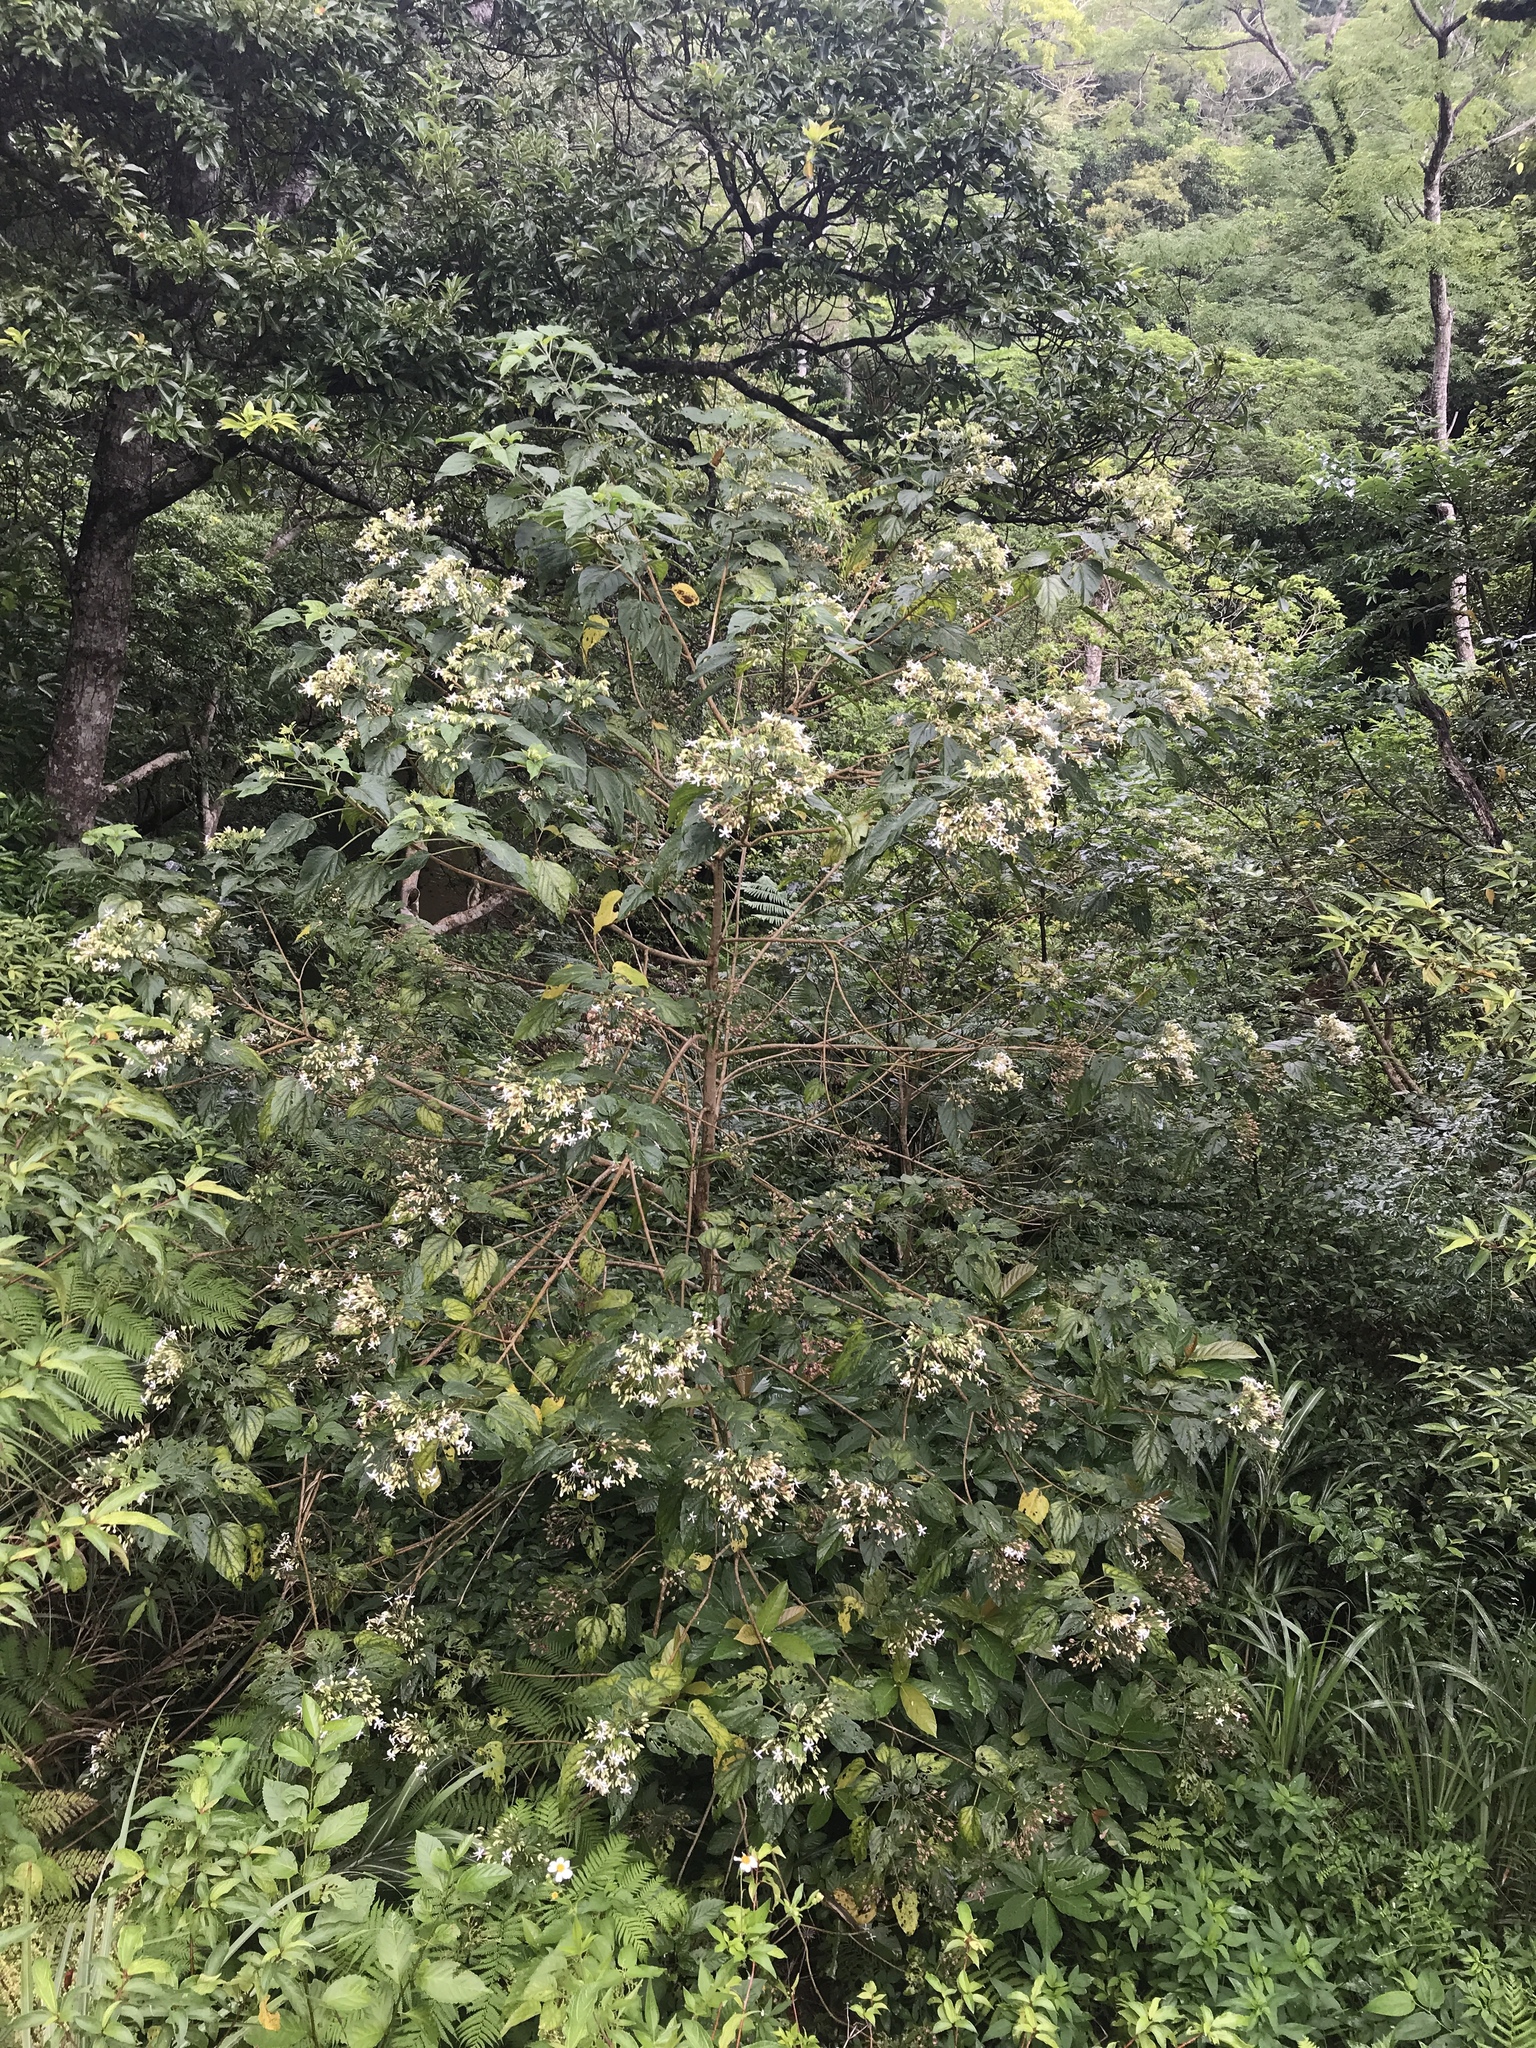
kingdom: Plantae
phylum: Tracheophyta
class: Magnoliopsida
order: Lamiales
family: Lamiaceae
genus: Clerodendrum
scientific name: Clerodendrum trichotomum
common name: Harlequin glorybower
